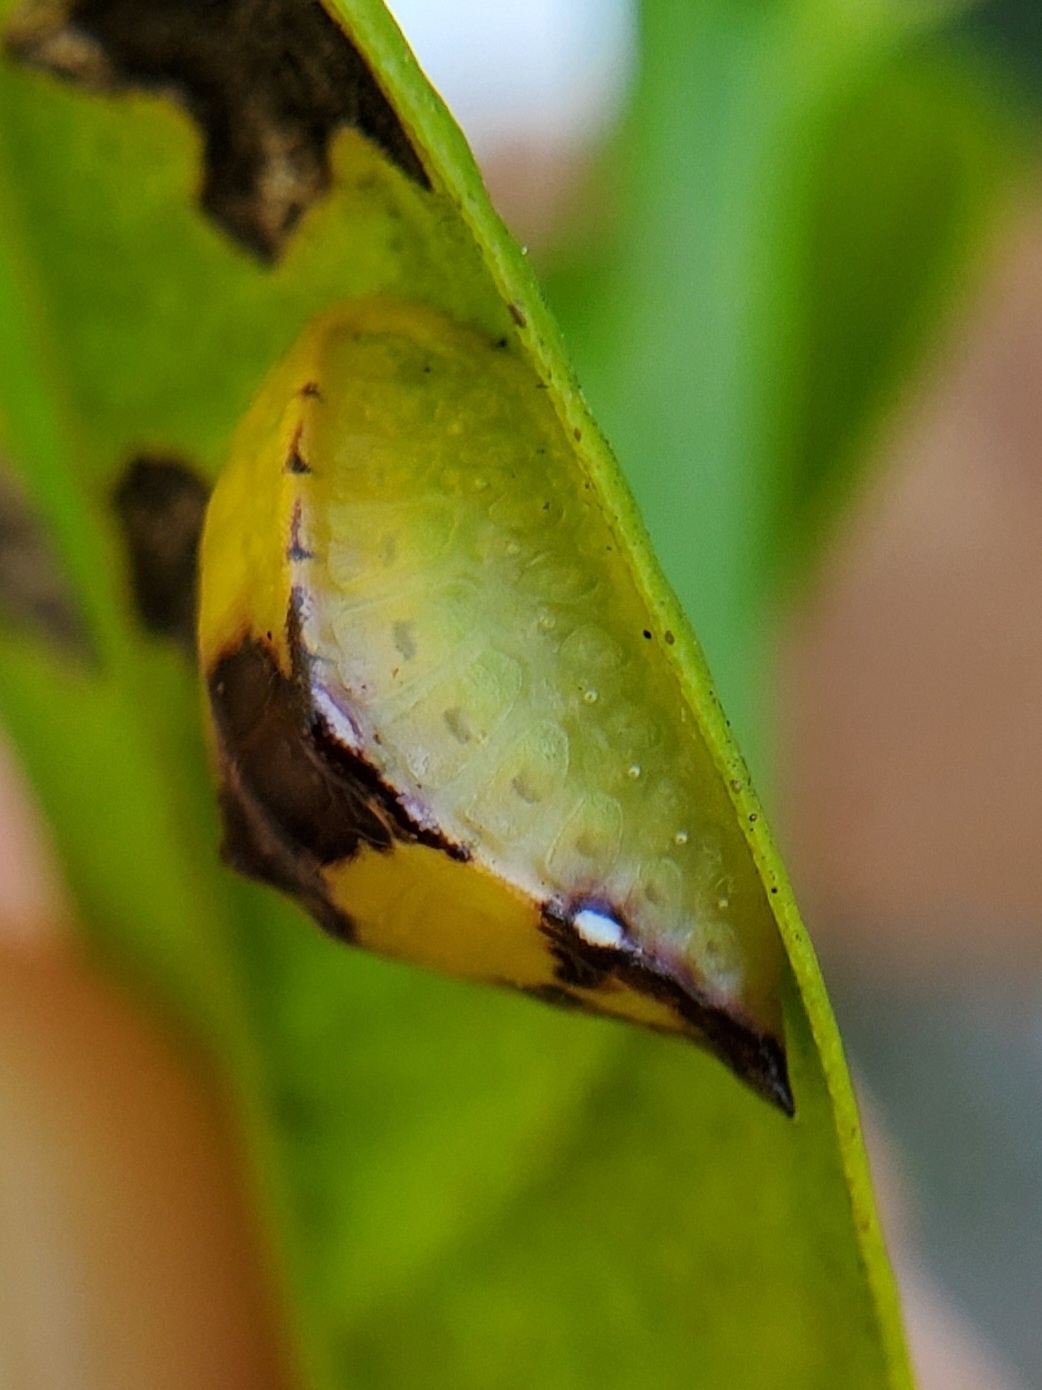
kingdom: Animalia
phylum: Arthropoda
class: Insecta
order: Lepidoptera
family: Limacodidae
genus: Prolimacodes
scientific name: Prolimacodes badia
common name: Skiff moth
